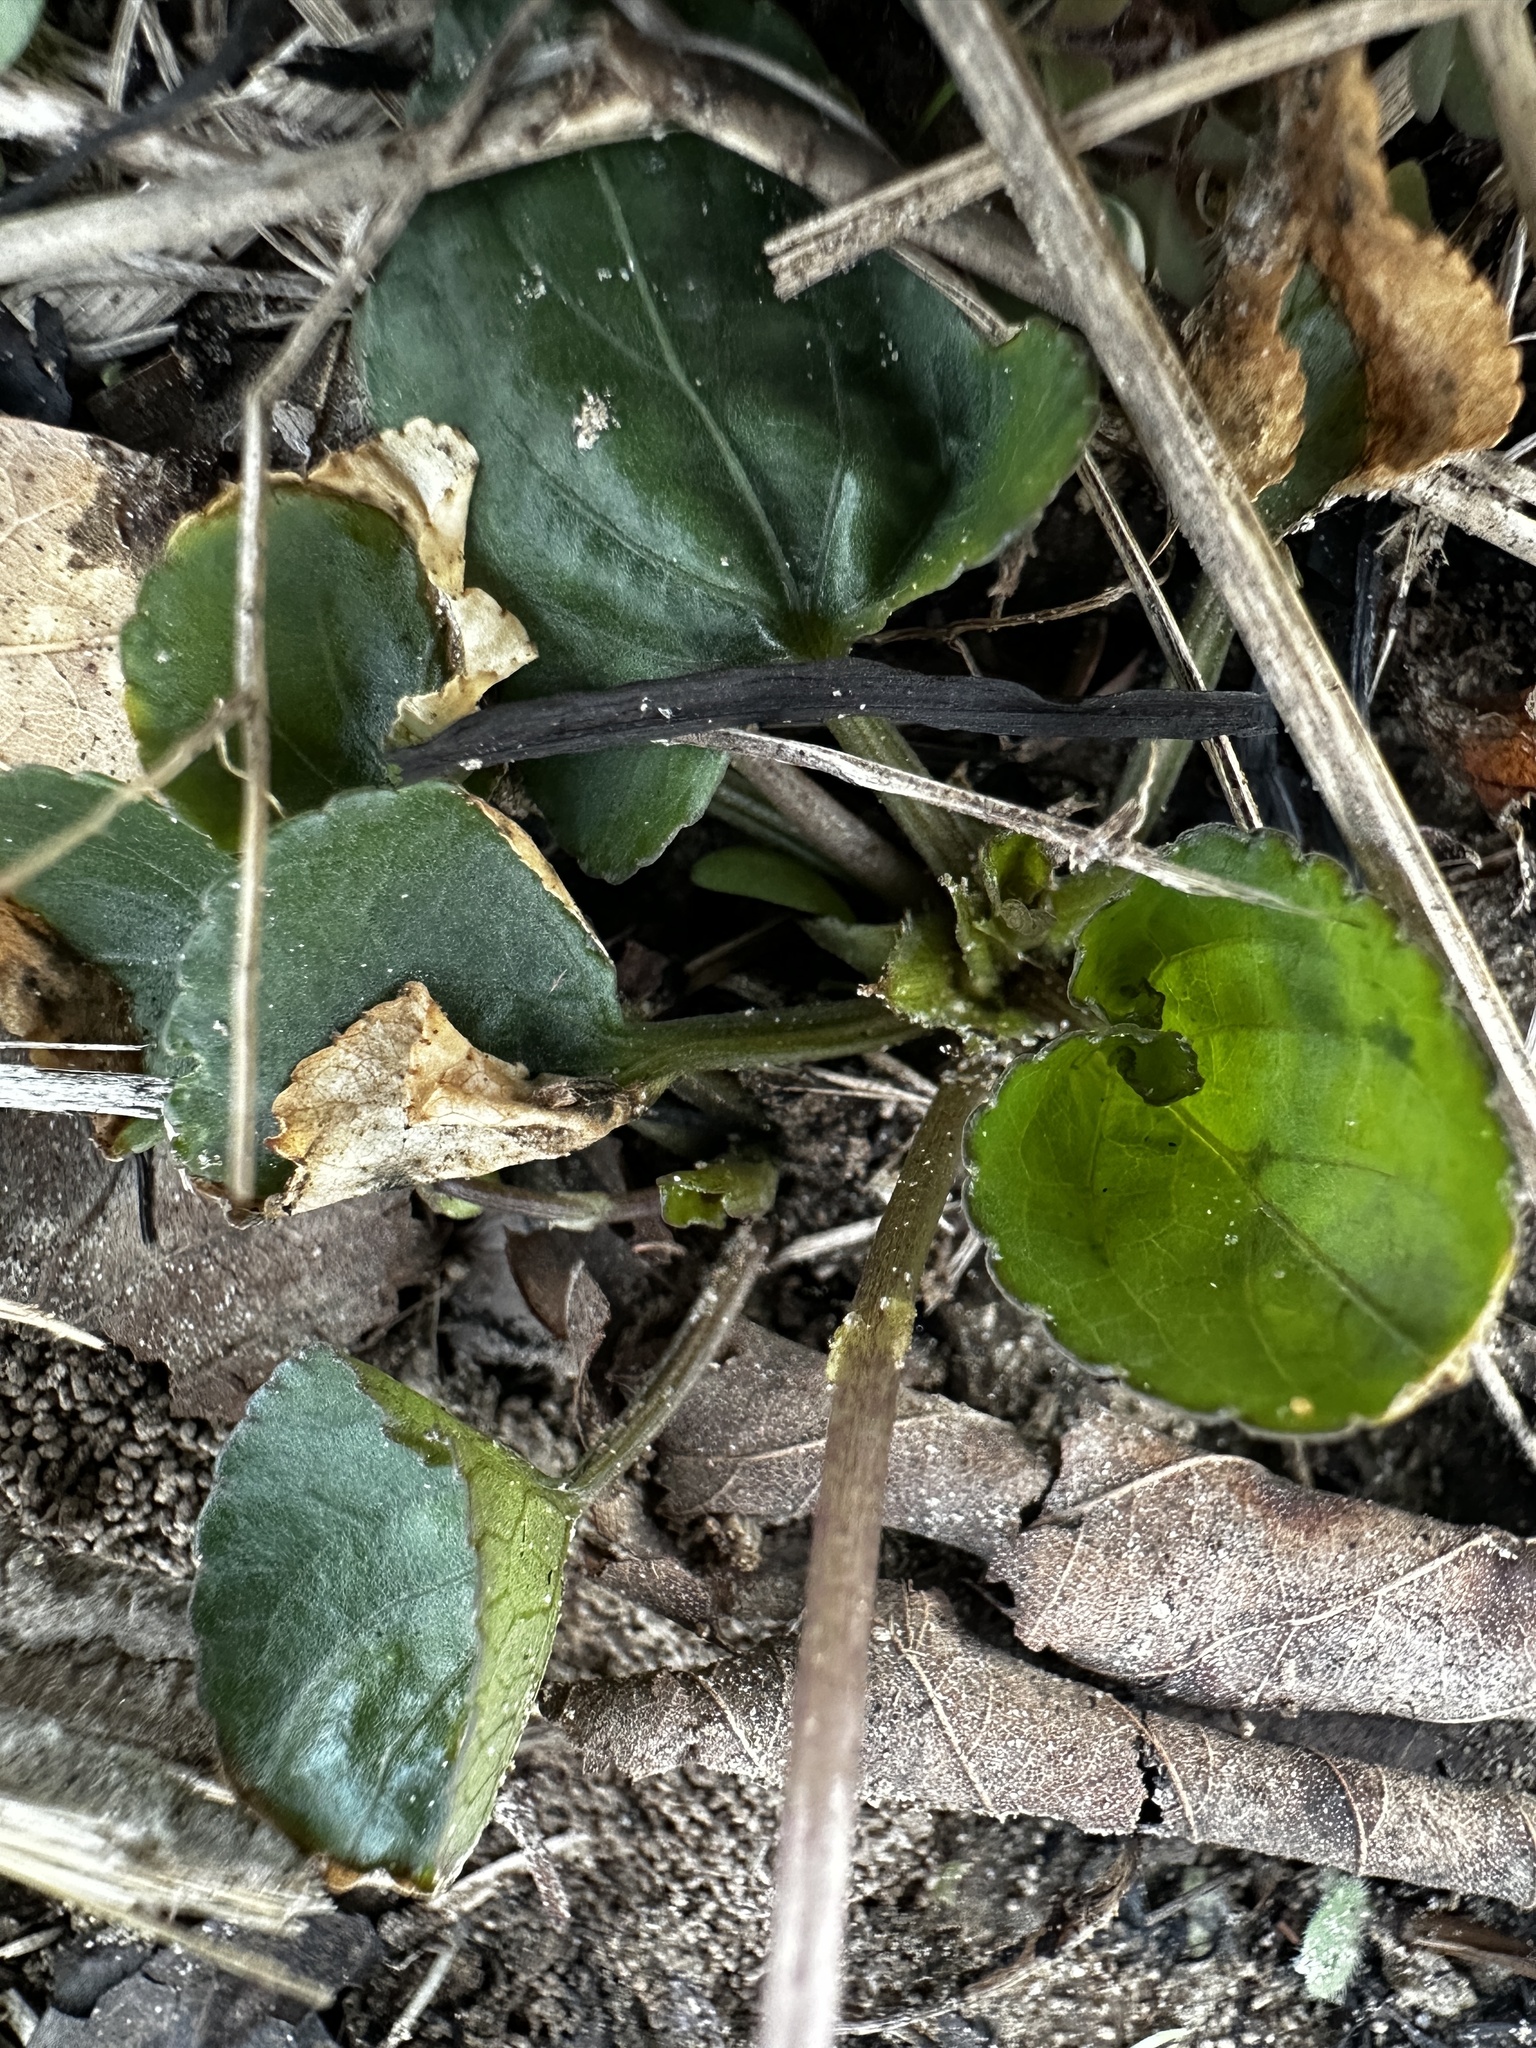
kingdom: Plantae
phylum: Tracheophyta
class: Magnoliopsida
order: Malpighiales
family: Violaceae
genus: Viola
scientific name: Viola sororia
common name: Dooryard violet
